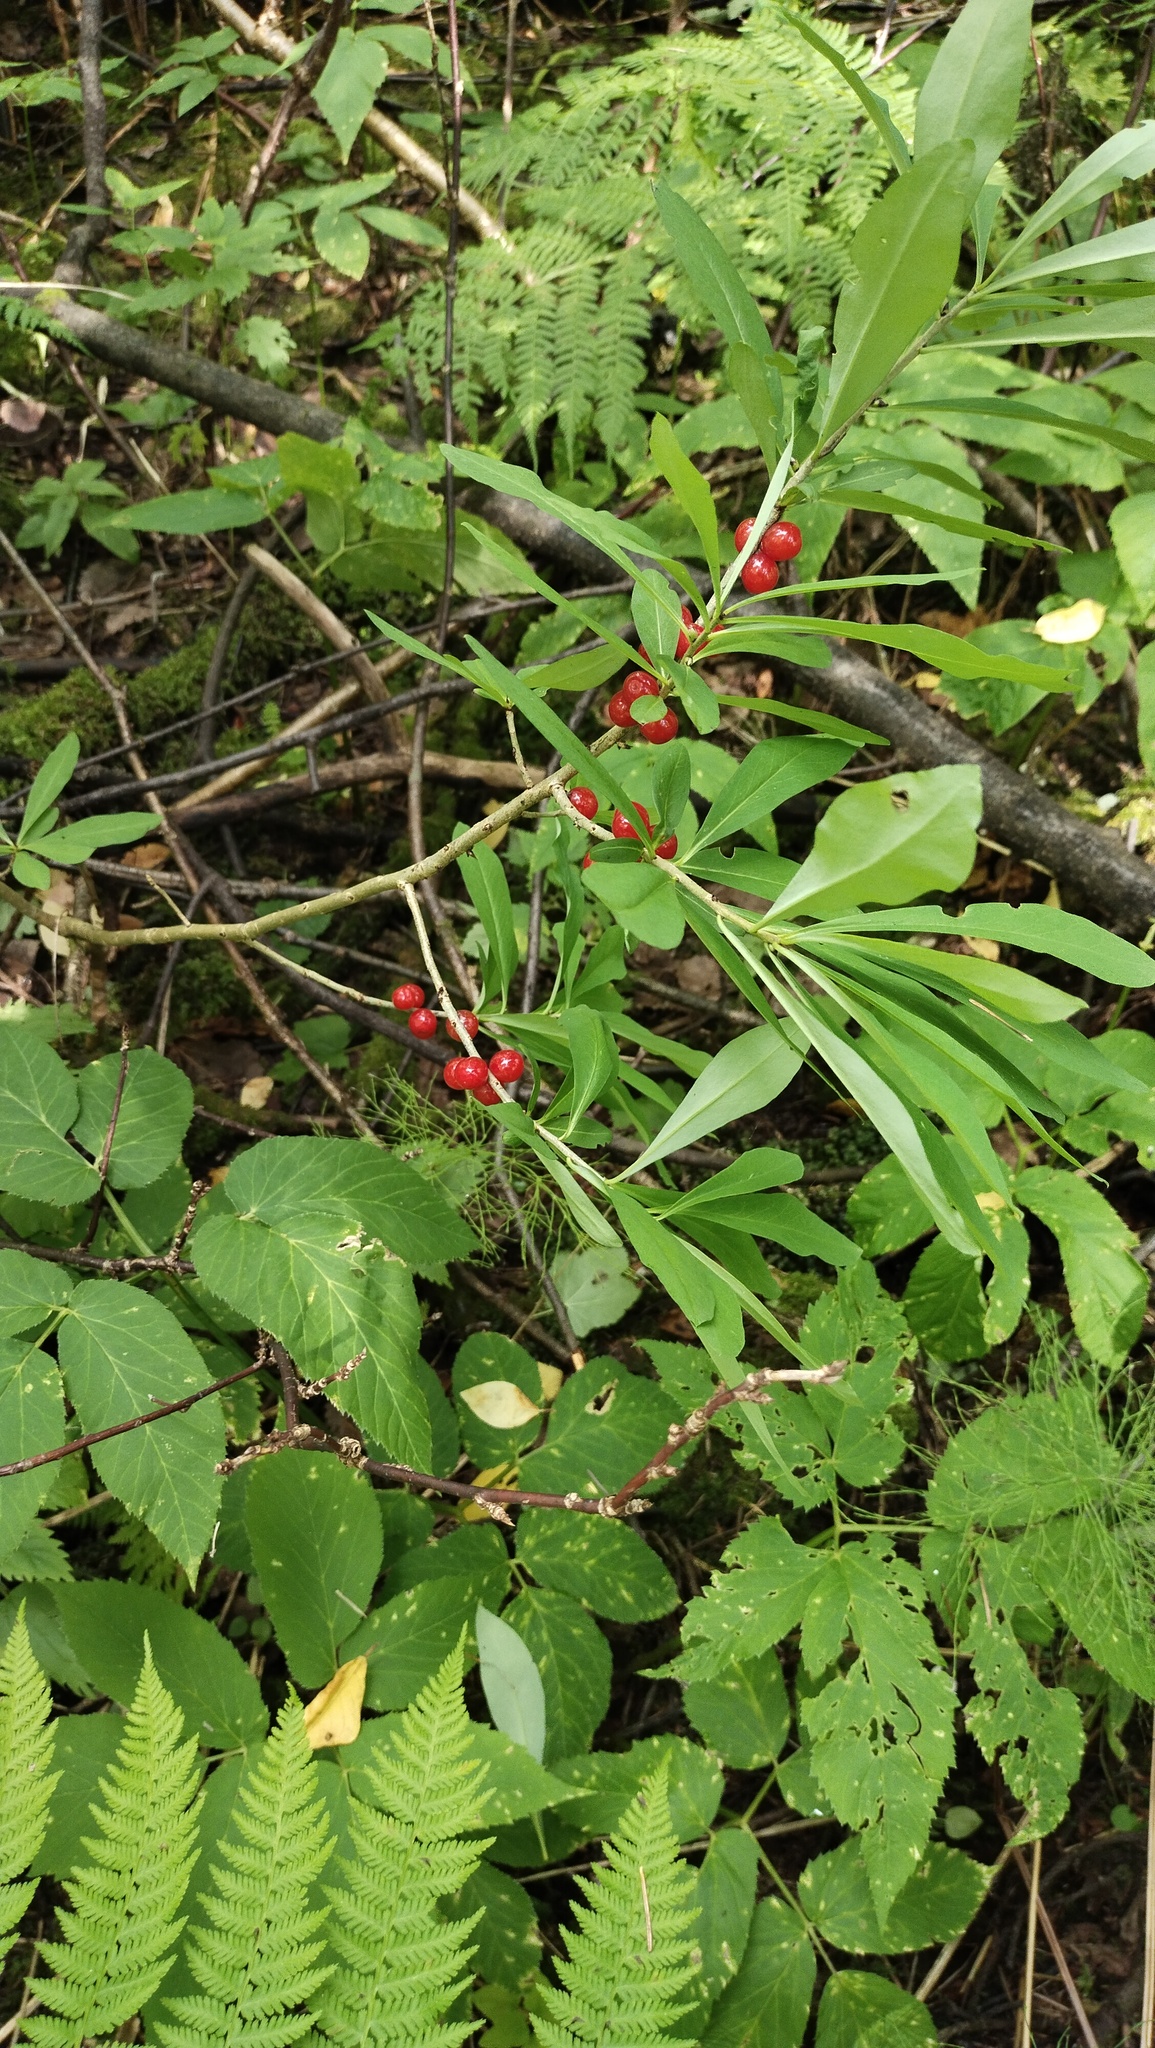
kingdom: Plantae
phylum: Tracheophyta
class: Magnoliopsida
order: Malvales
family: Thymelaeaceae
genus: Daphne
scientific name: Daphne mezereum
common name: Mezereon
